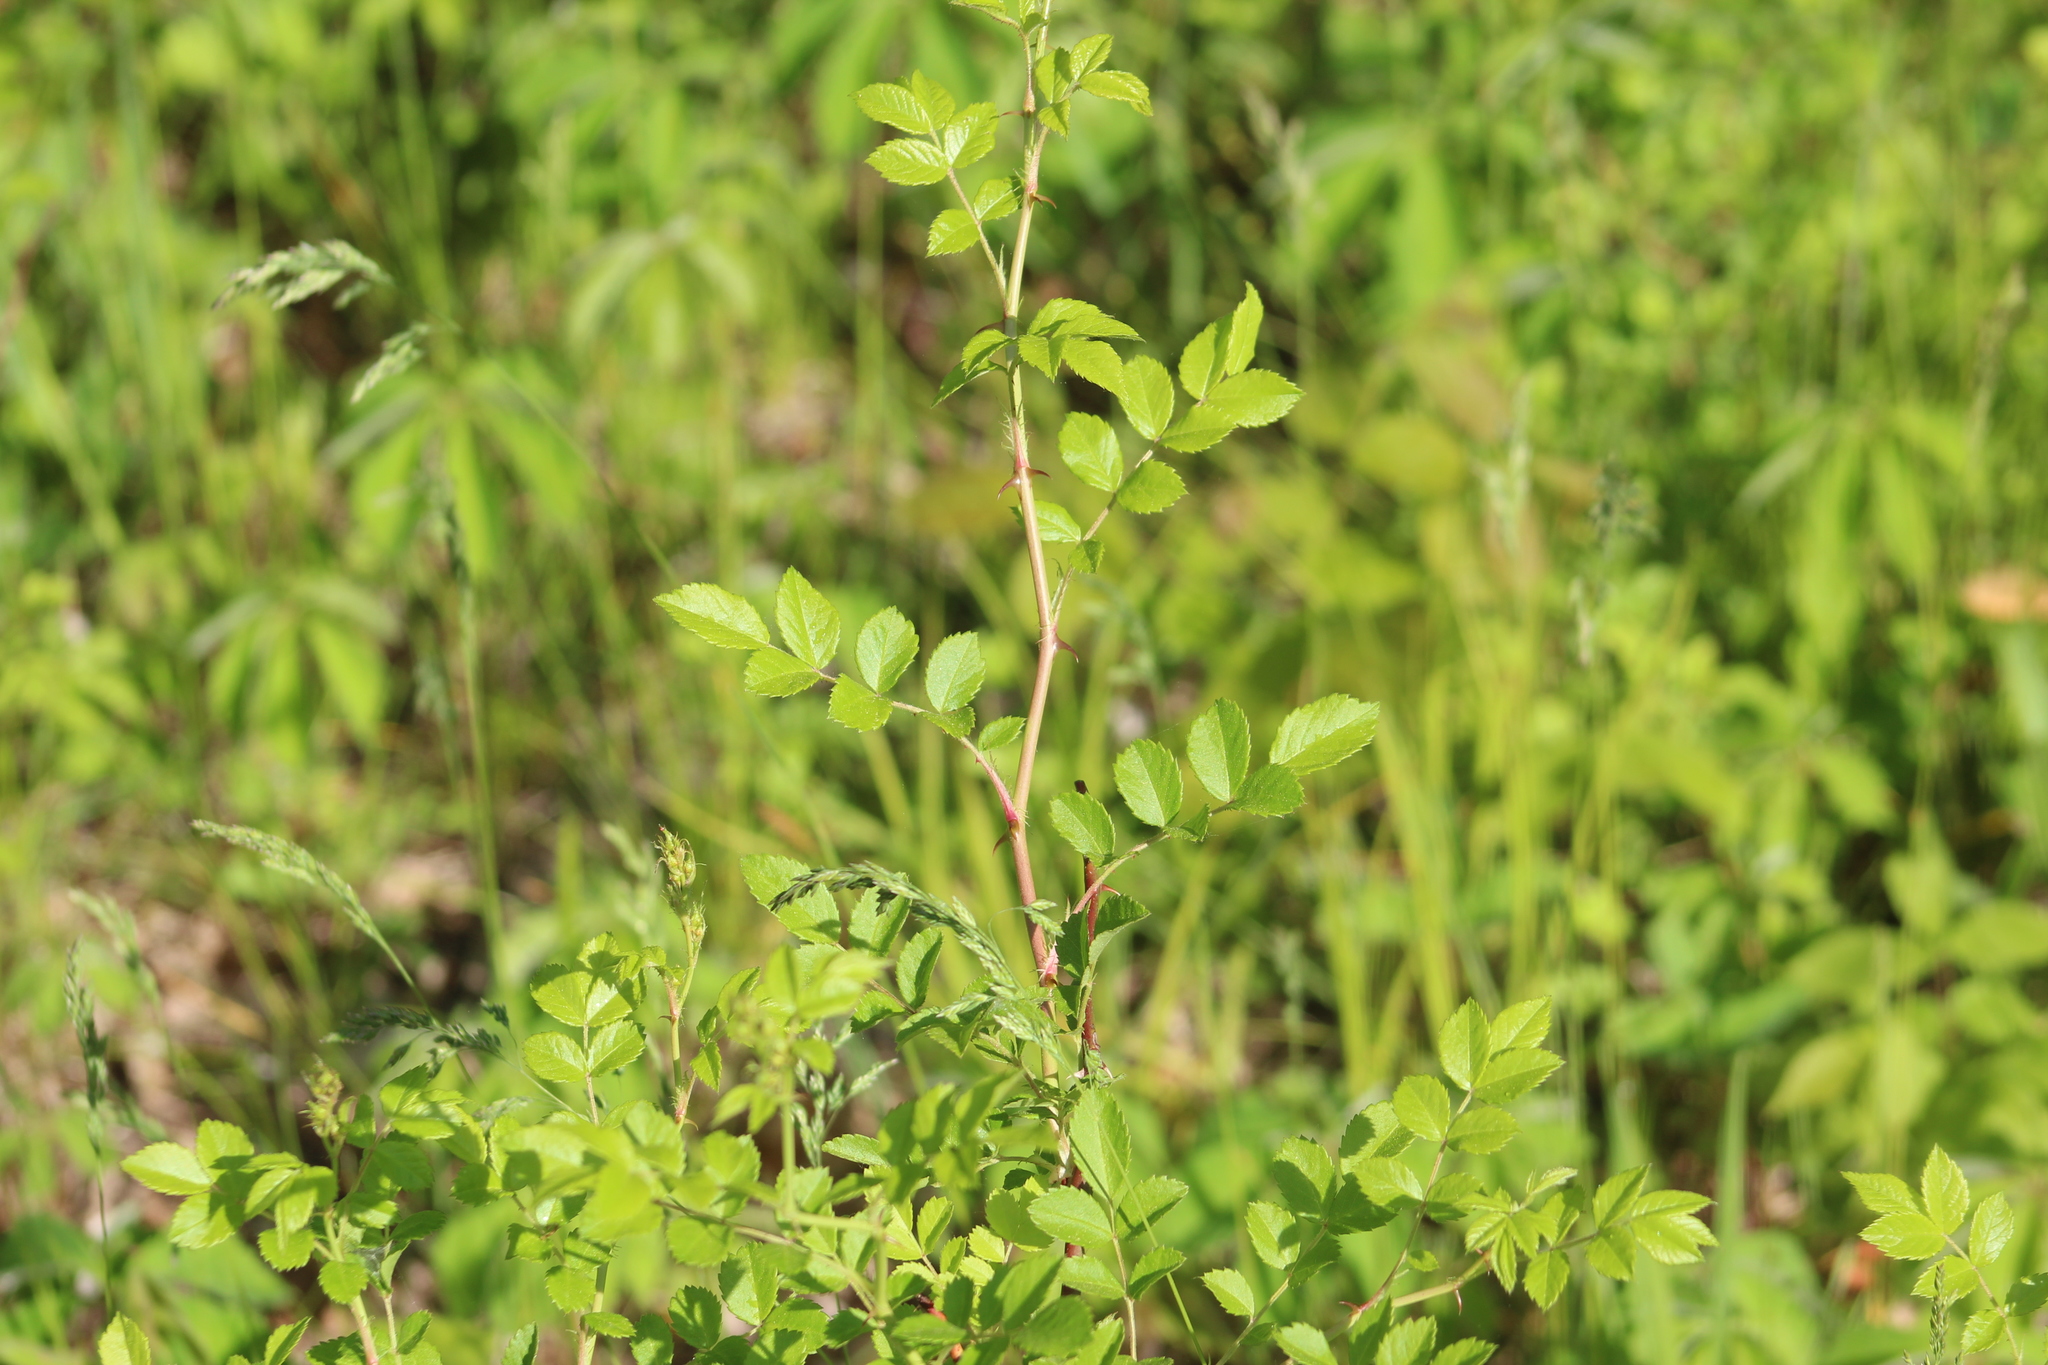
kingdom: Plantae
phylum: Tracheophyta
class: Magnoliopsida
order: Rosales
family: Rosaceae
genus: Rosa
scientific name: Rosa multiflora
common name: Multiflora rose
